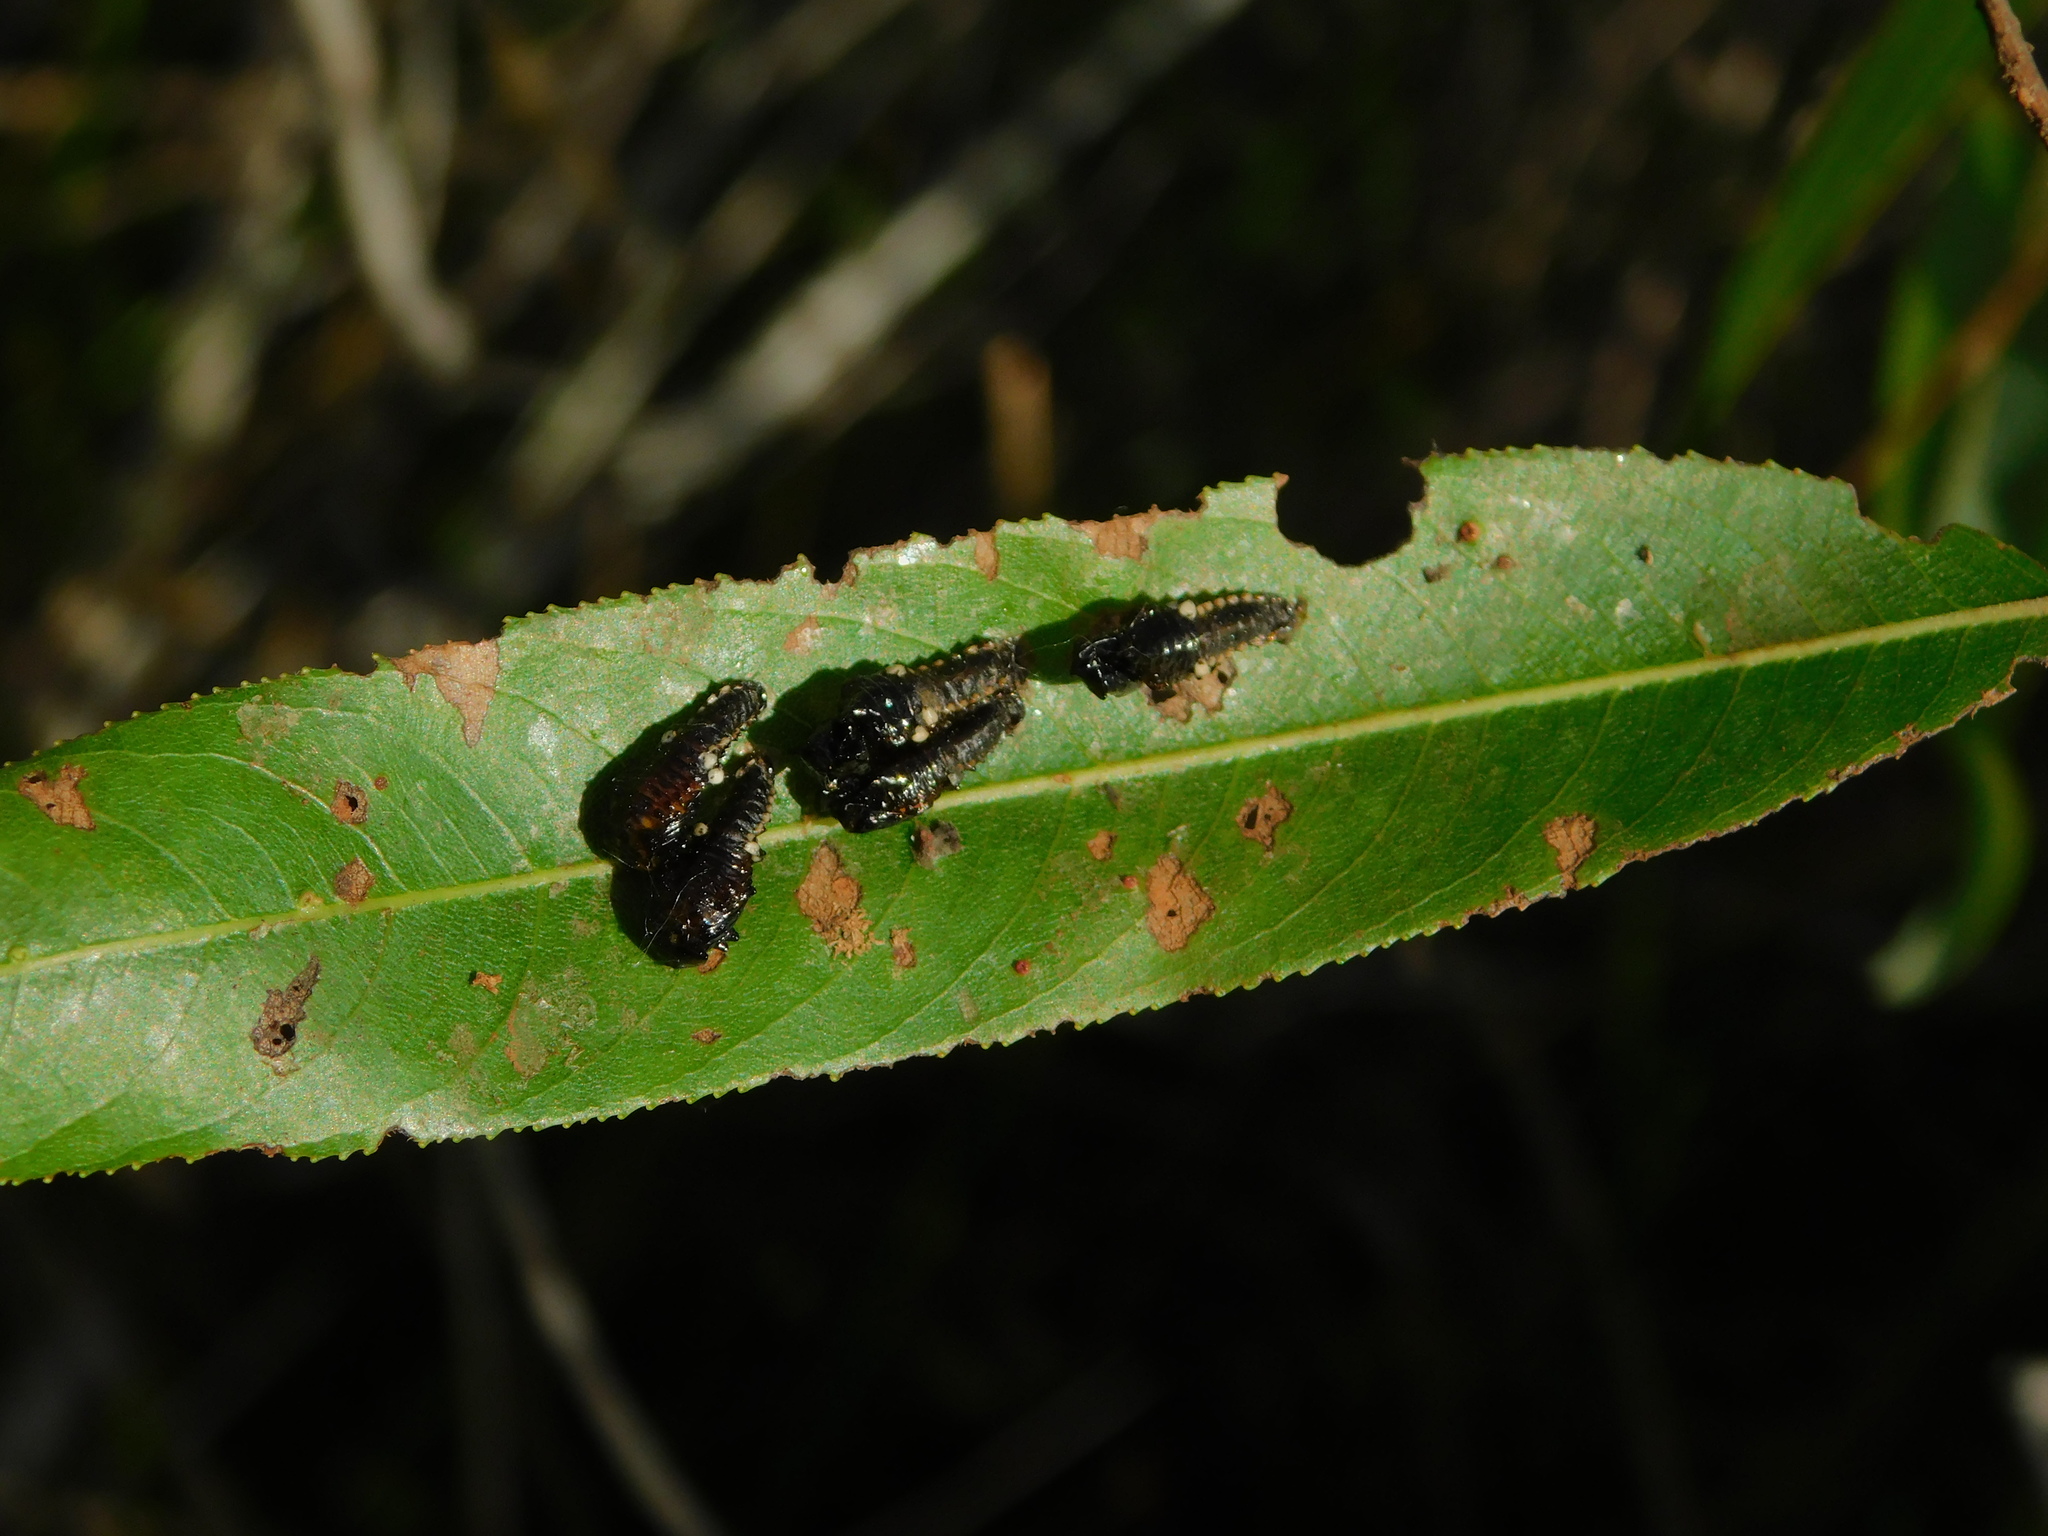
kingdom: Animalia
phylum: Arthropoda
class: Insecta
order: Coleoptera
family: Chrysomelidae
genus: Aethiopocassis
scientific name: Aethiopocassis scripta
